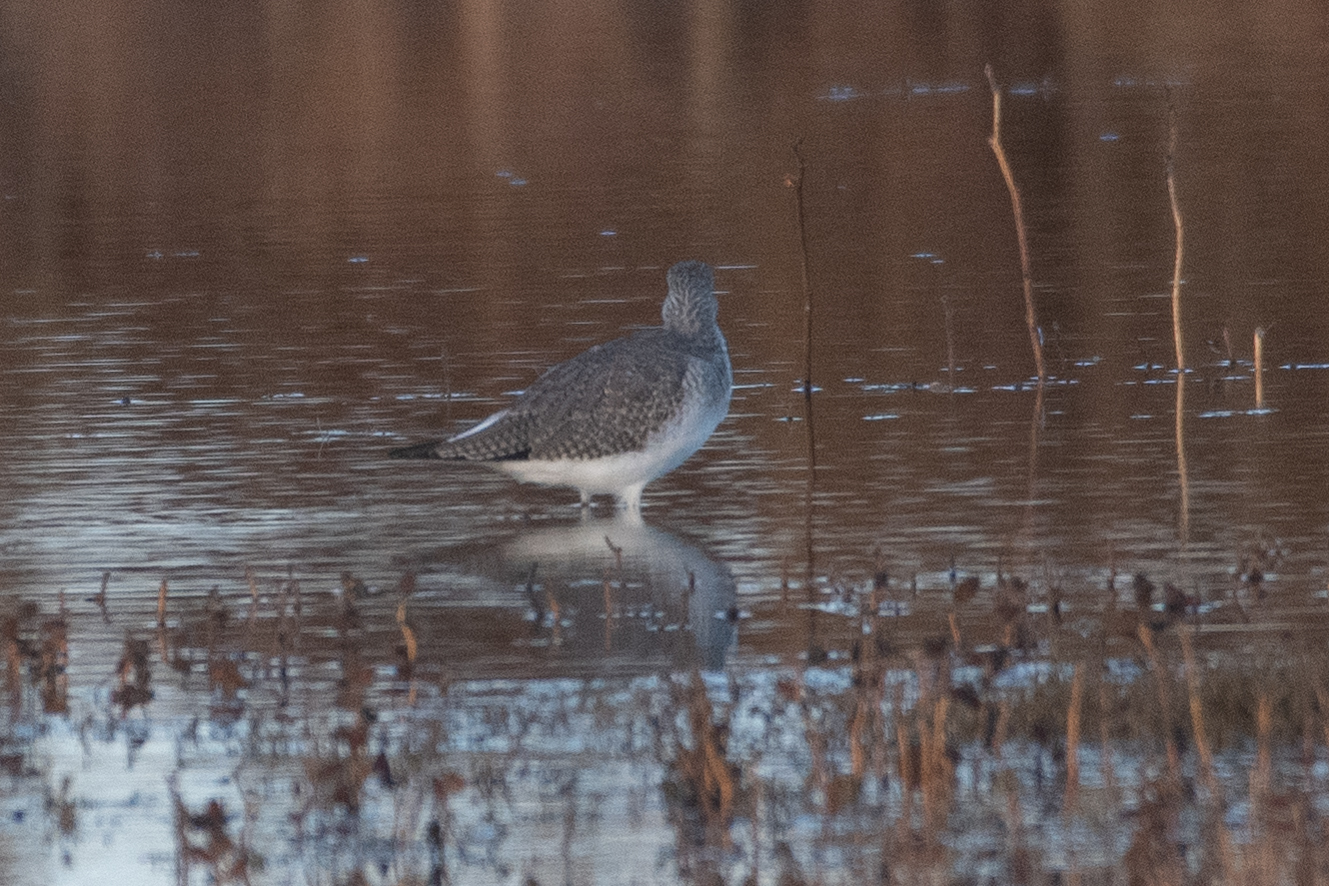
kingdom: Animalia
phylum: Chordata
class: Aves
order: Charadriiformes
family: Scolopacidae
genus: Tringa
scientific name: Tringa melanoleuca
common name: Greater yellowlegs
